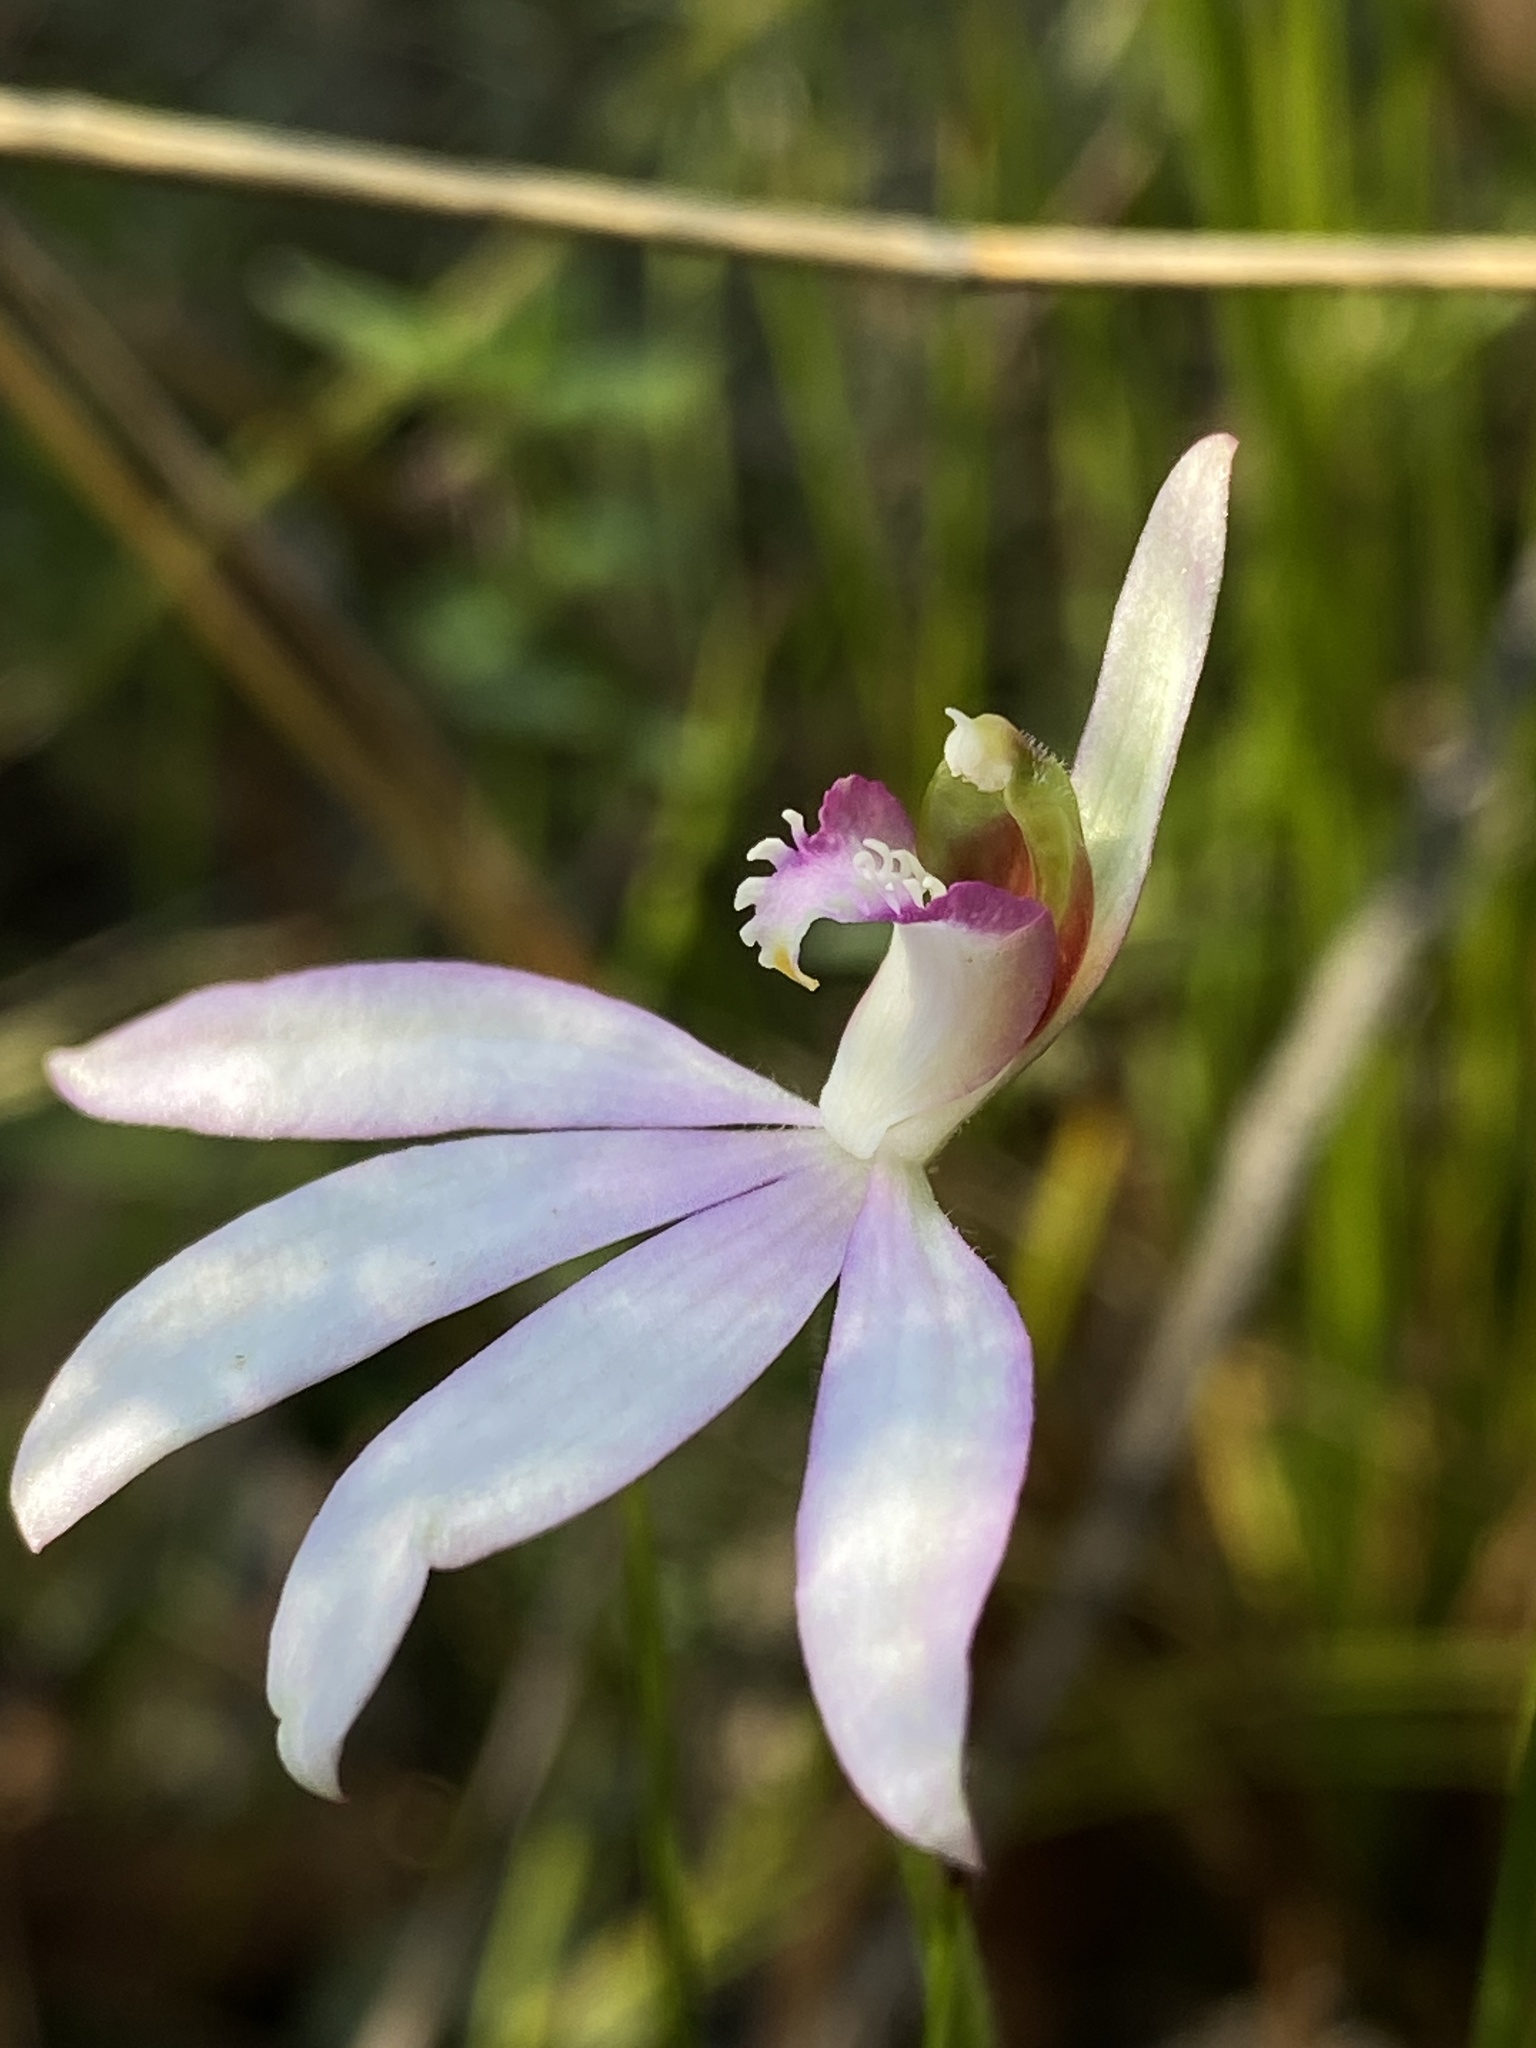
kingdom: Plantae
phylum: Tracheophyta
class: Liliopsida
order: Asparagales
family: Orchidaceae
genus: Caladenia
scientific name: Caladenia catenata
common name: White caladenia
